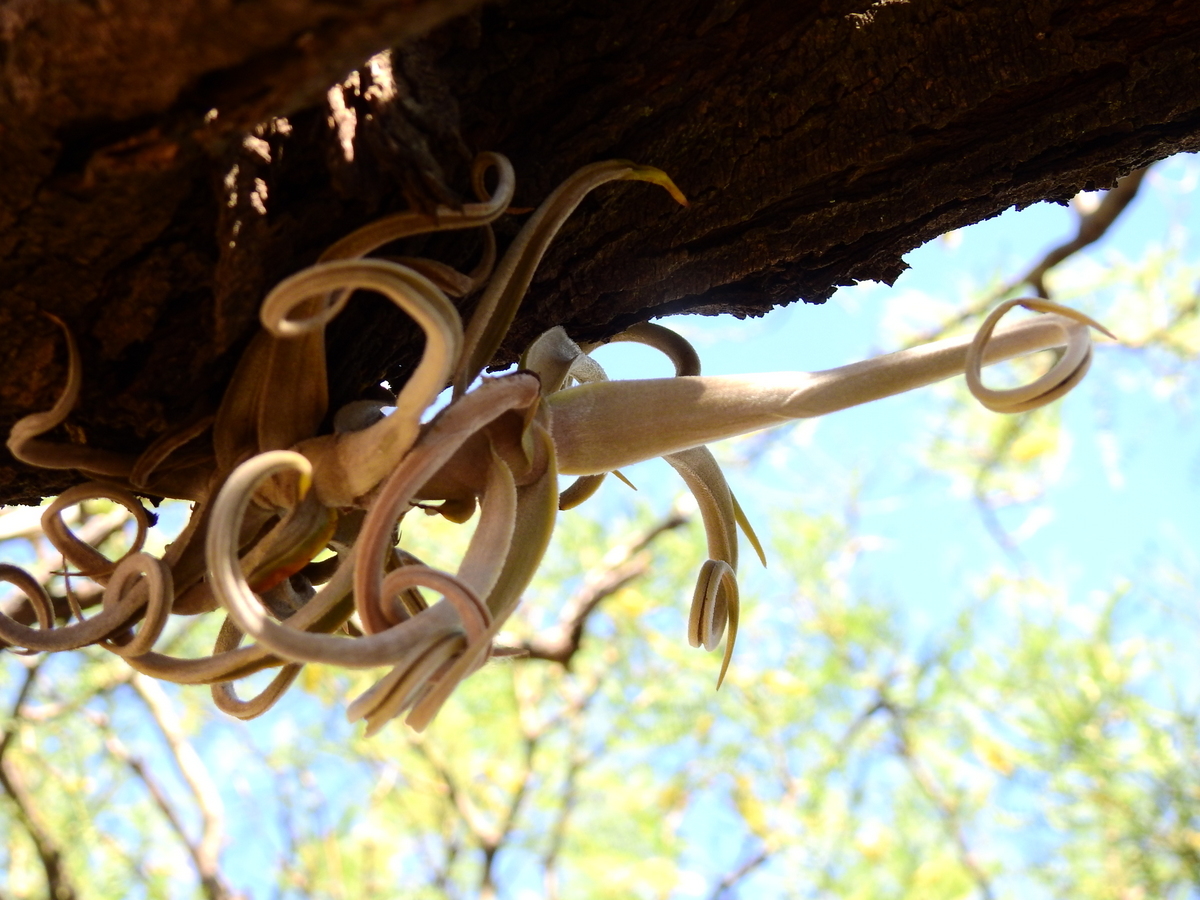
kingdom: Plantae
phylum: Tracheophyta
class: Liliopsida
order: Poales
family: Bromeliaceae
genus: Tillandsia
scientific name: Tillandsia duratii
